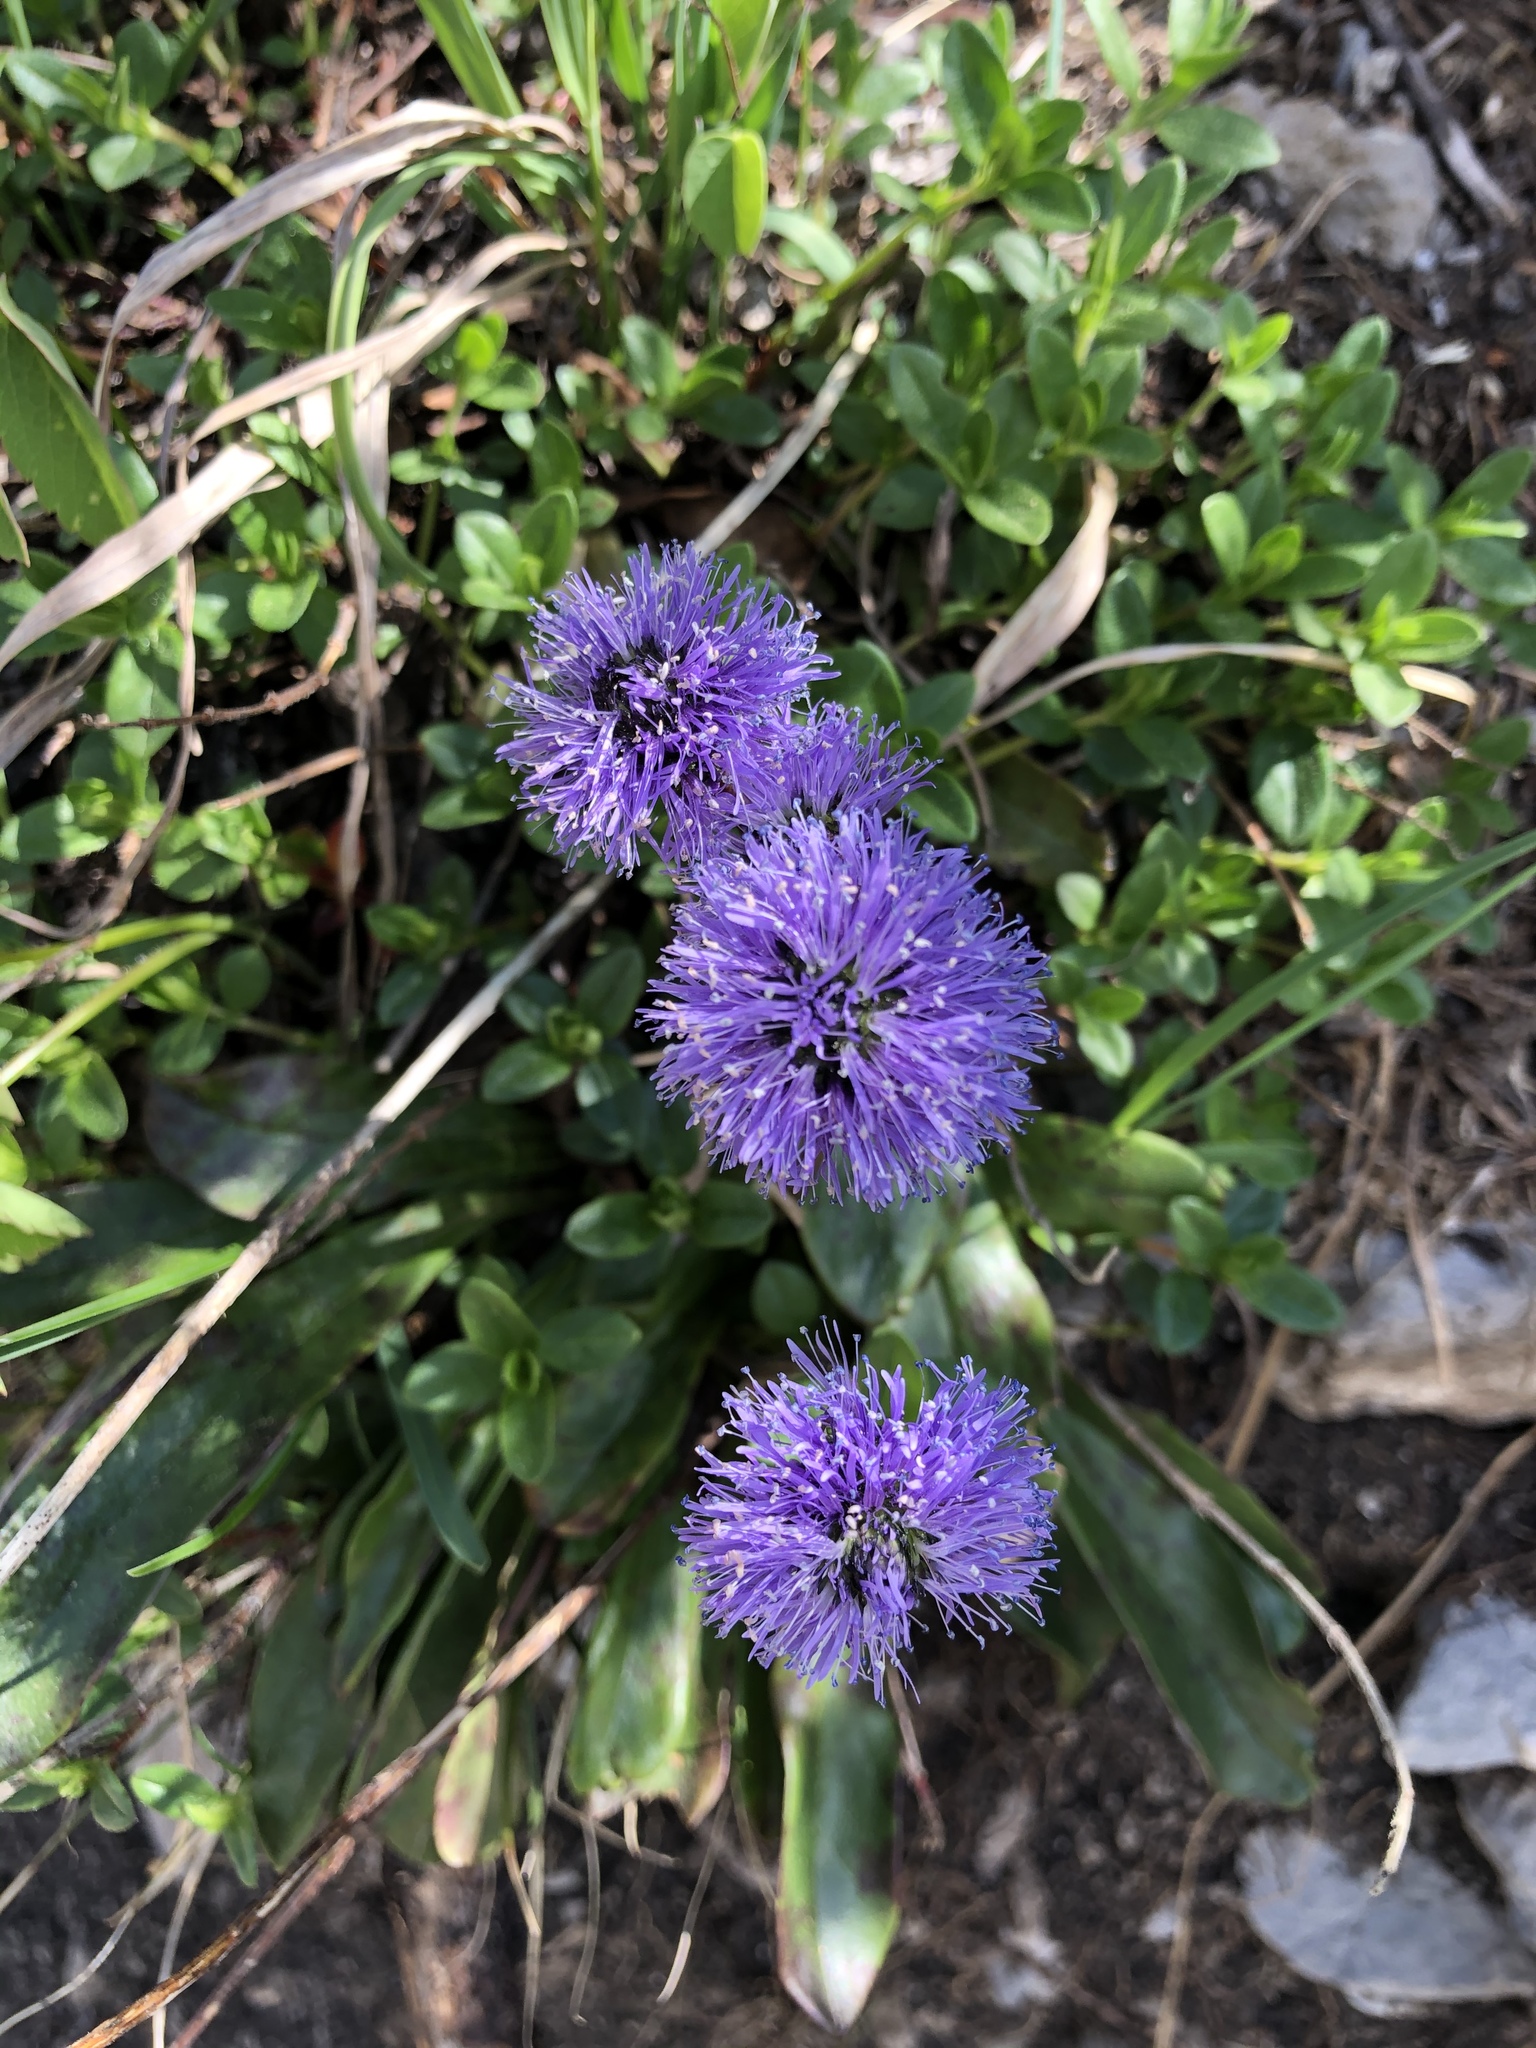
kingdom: Plantae
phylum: Tracheophyta
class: Magnoliopsida
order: Lamiales
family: Plantaginaceae
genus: Globularia
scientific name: Globularia nudicaulis
